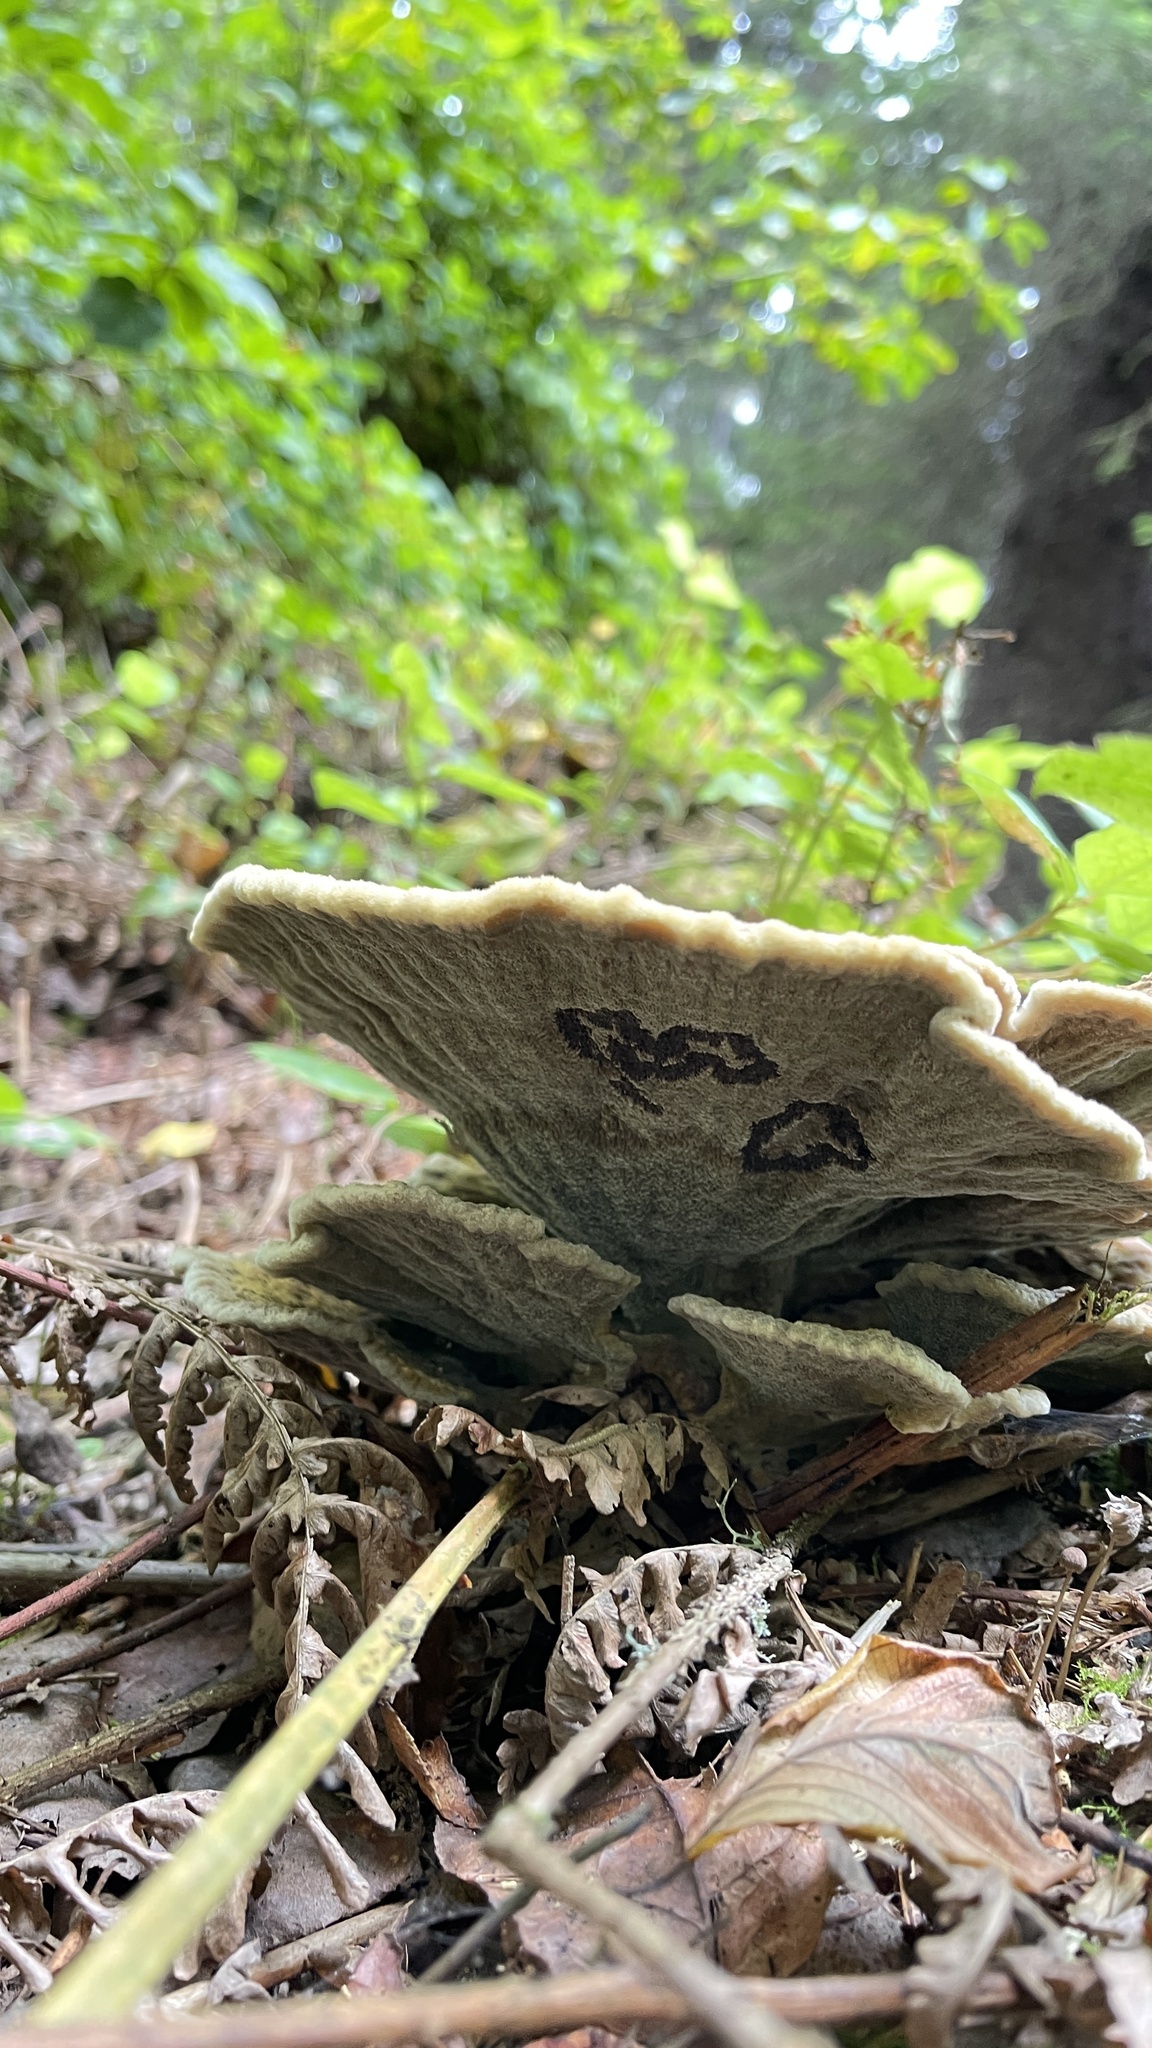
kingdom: Fungi
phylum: Basidiomycota
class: Agaricomycetes
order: Polyporales
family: Laetiporaceae
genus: Phaeolus
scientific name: Phaeolus schweinitzii
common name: Dyer's mazegill
